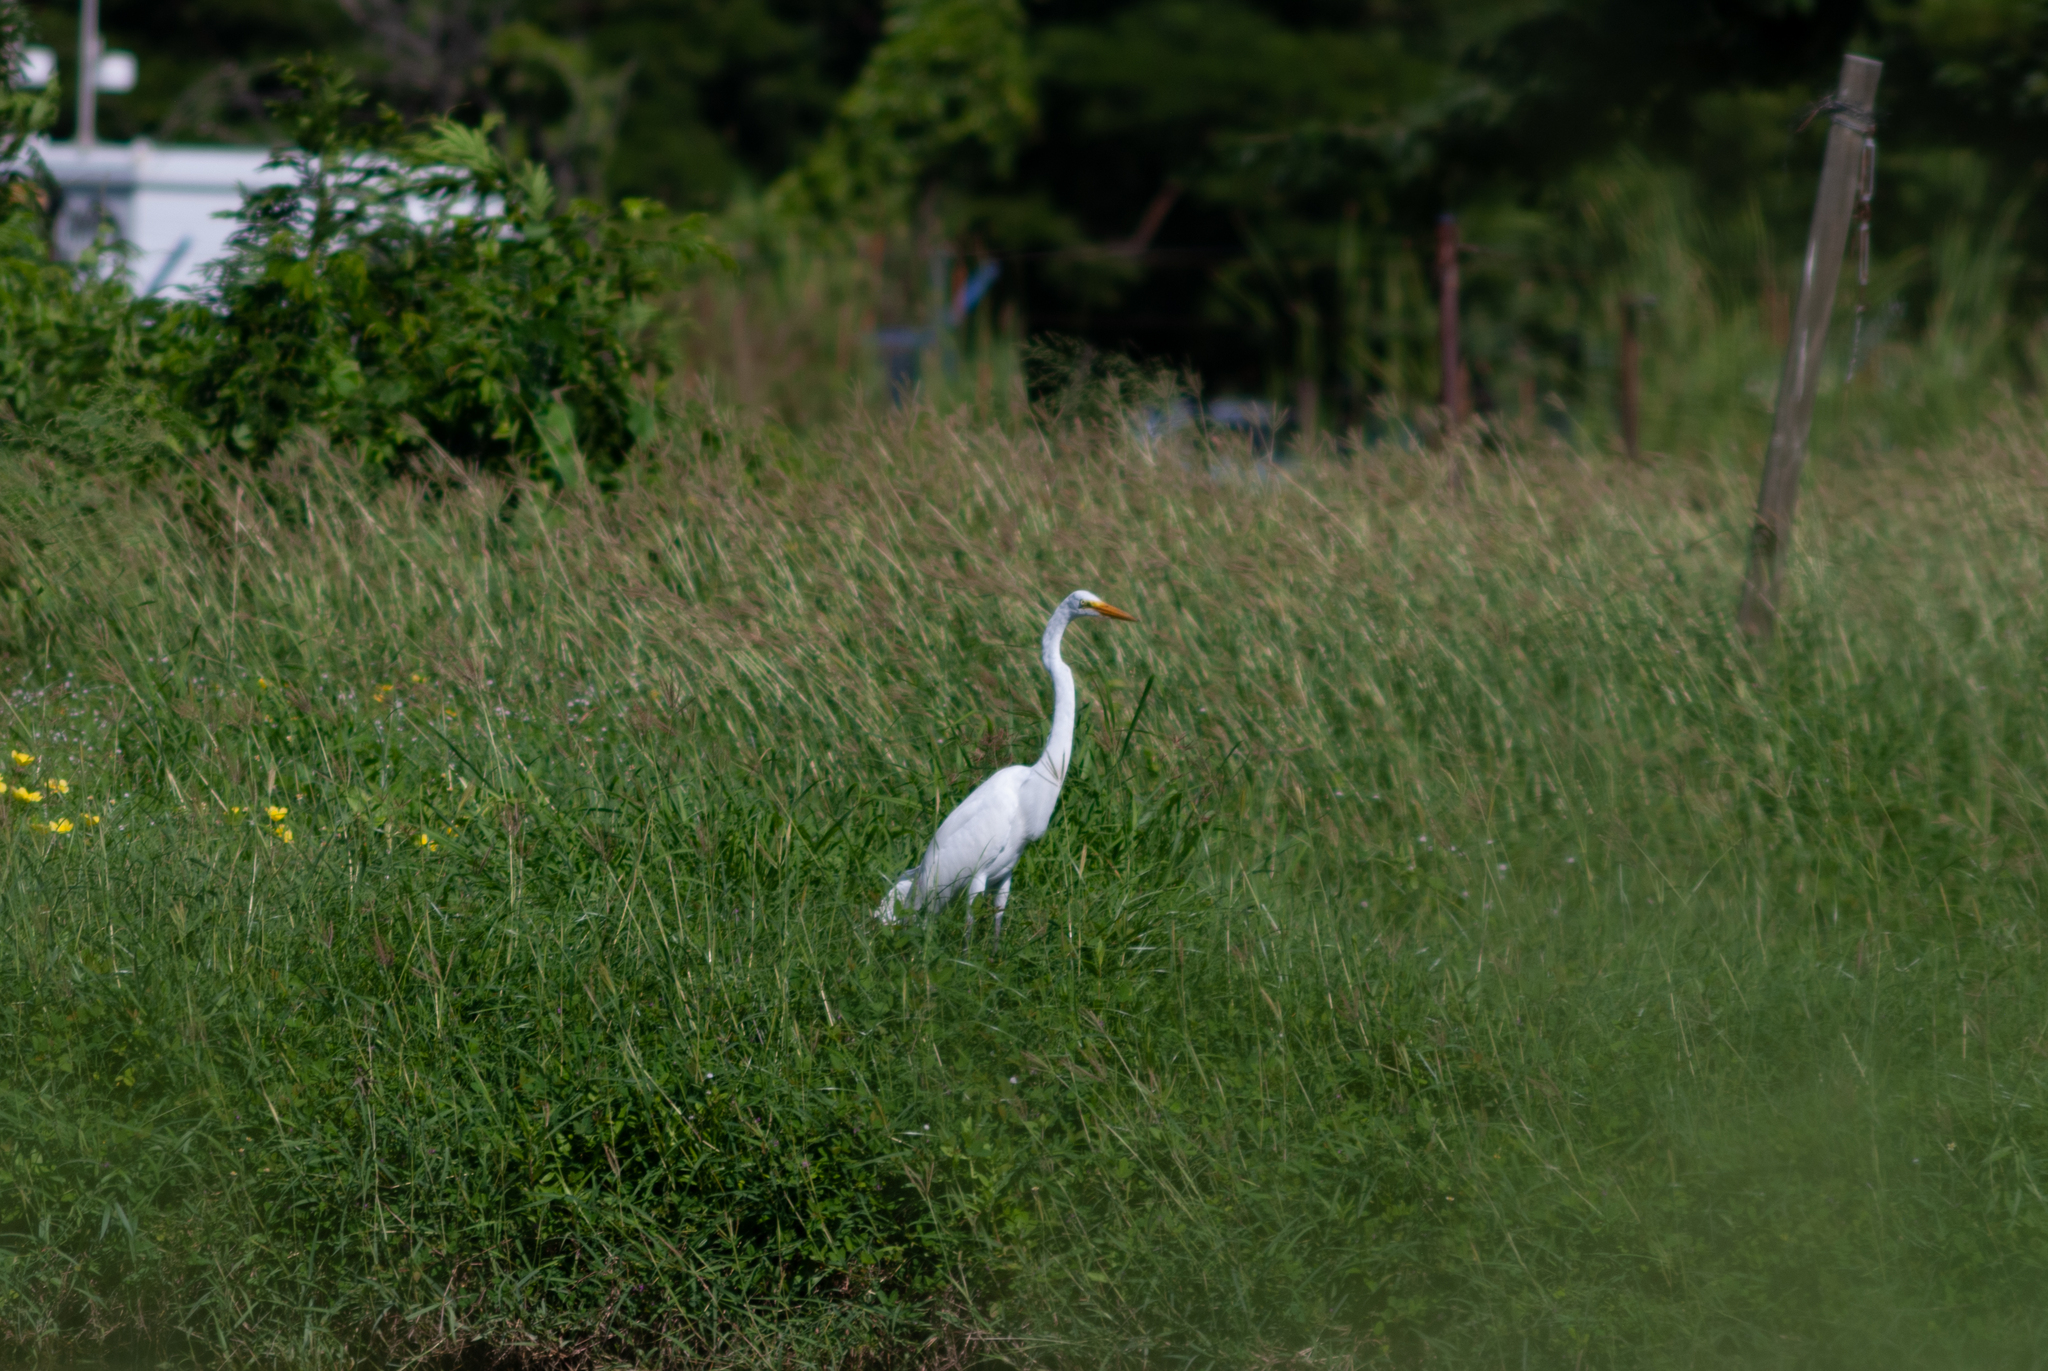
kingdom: Animalia
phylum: Chordata
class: Aves
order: Pelecaniformes
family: Ardeidae
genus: Ardea
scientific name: Ardea alba
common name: Great egret
